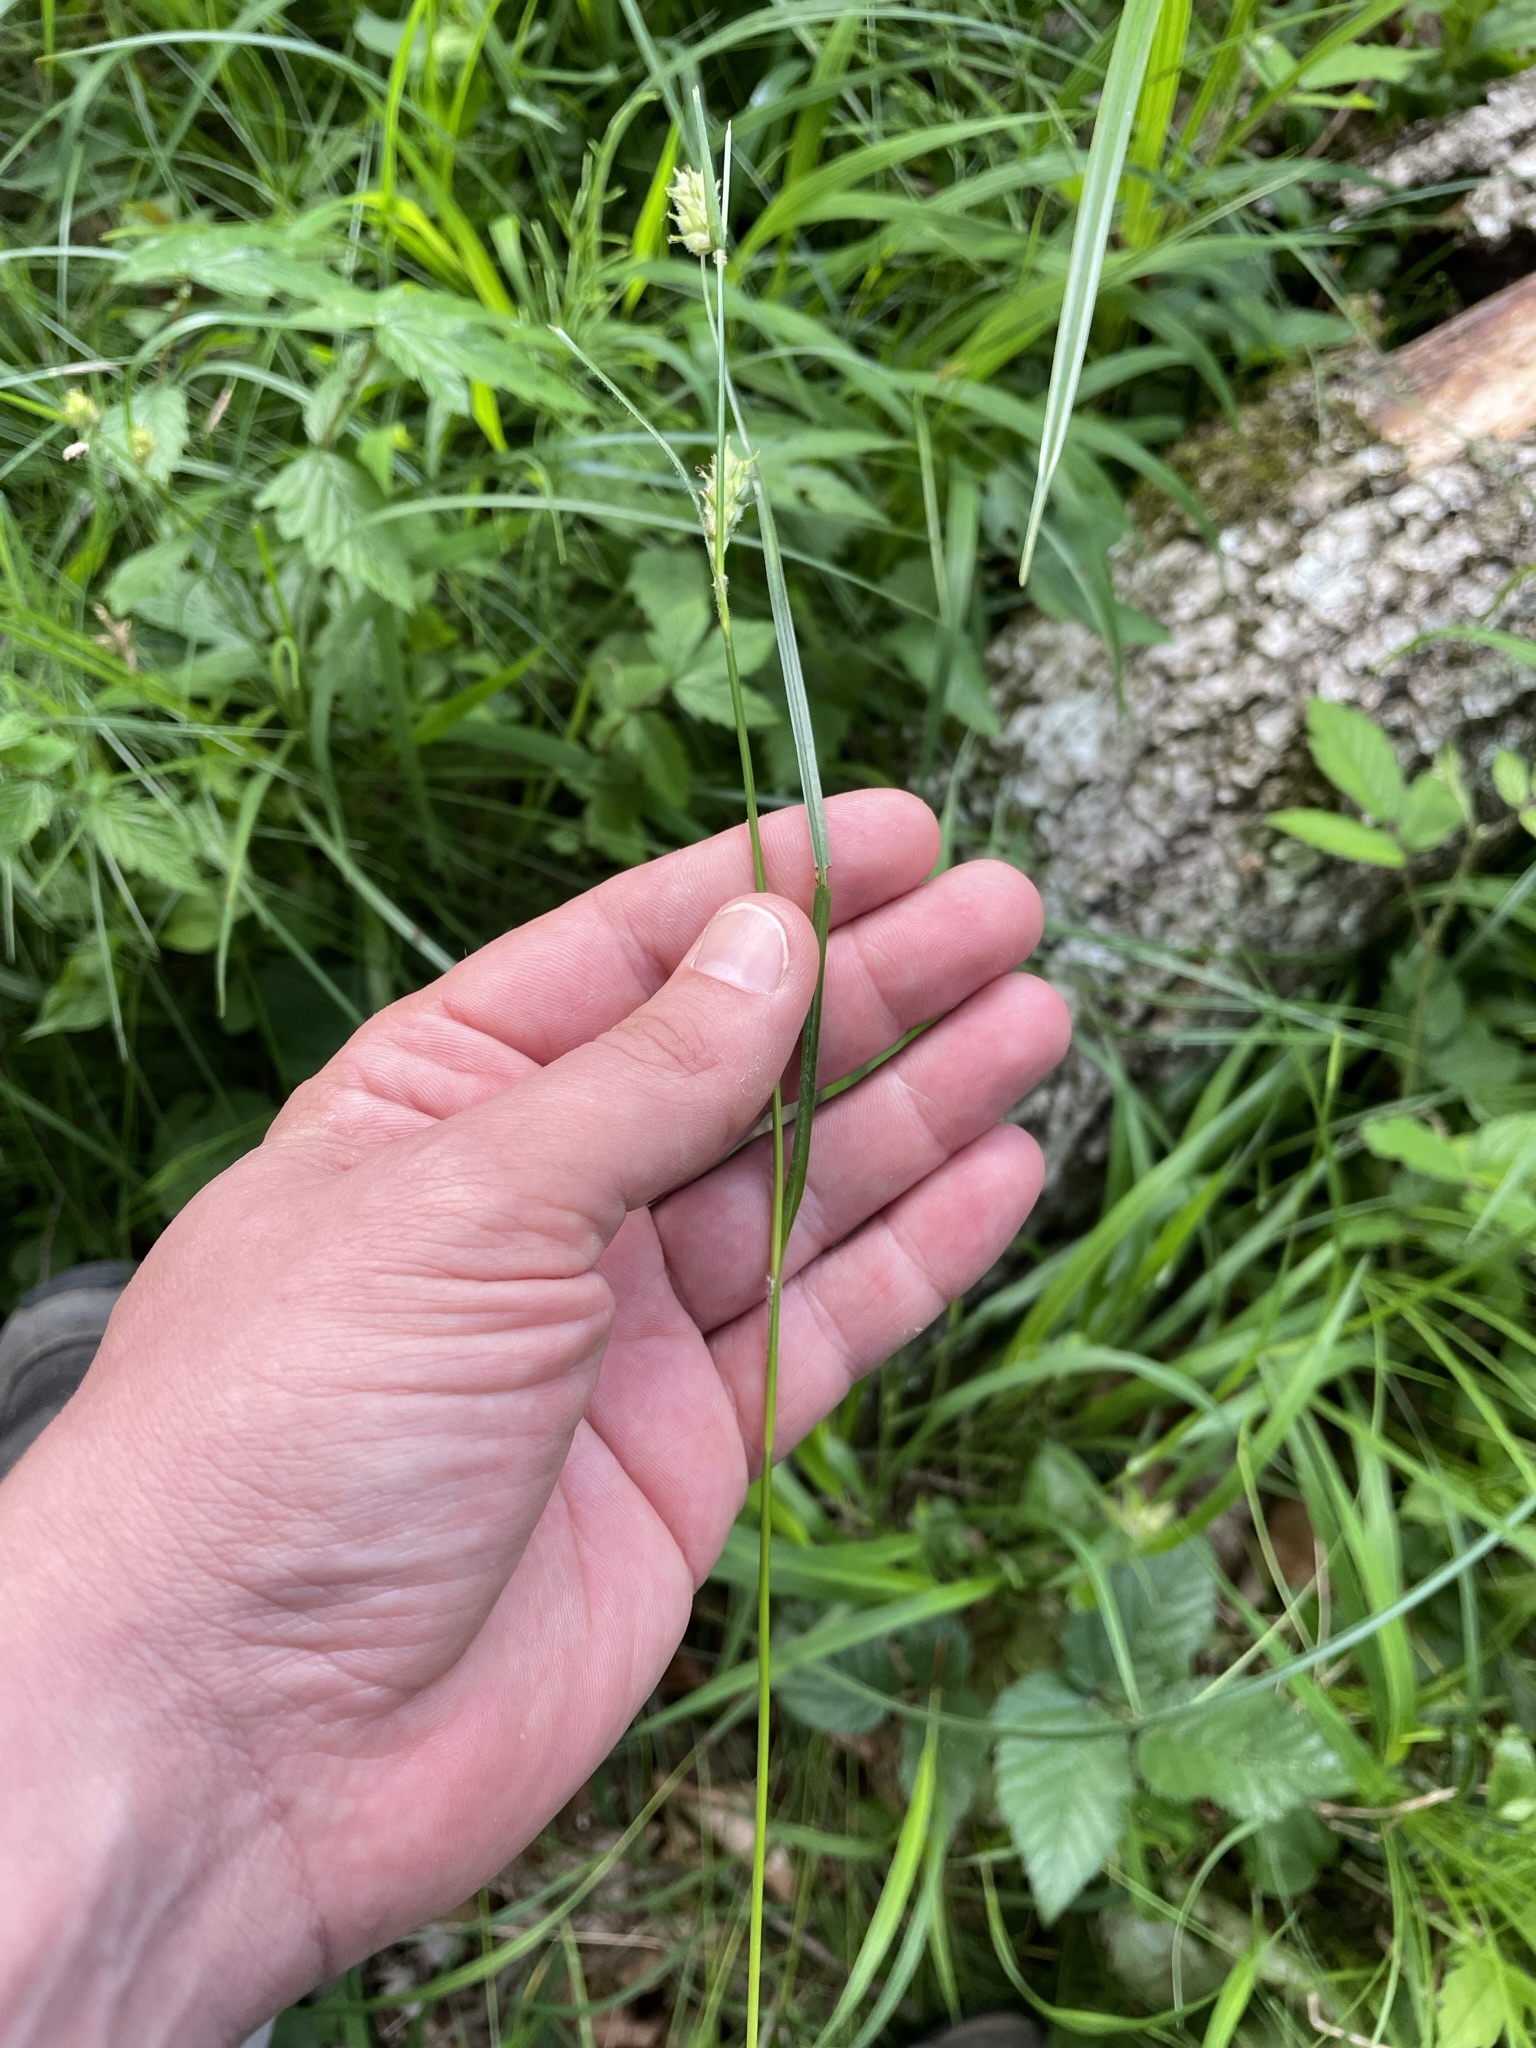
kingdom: Plantae
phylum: Tracheophyta
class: Liliopsida
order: Poales
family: Cyperaceae
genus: Carex
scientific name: Carex hirta
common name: Hairy sedge
